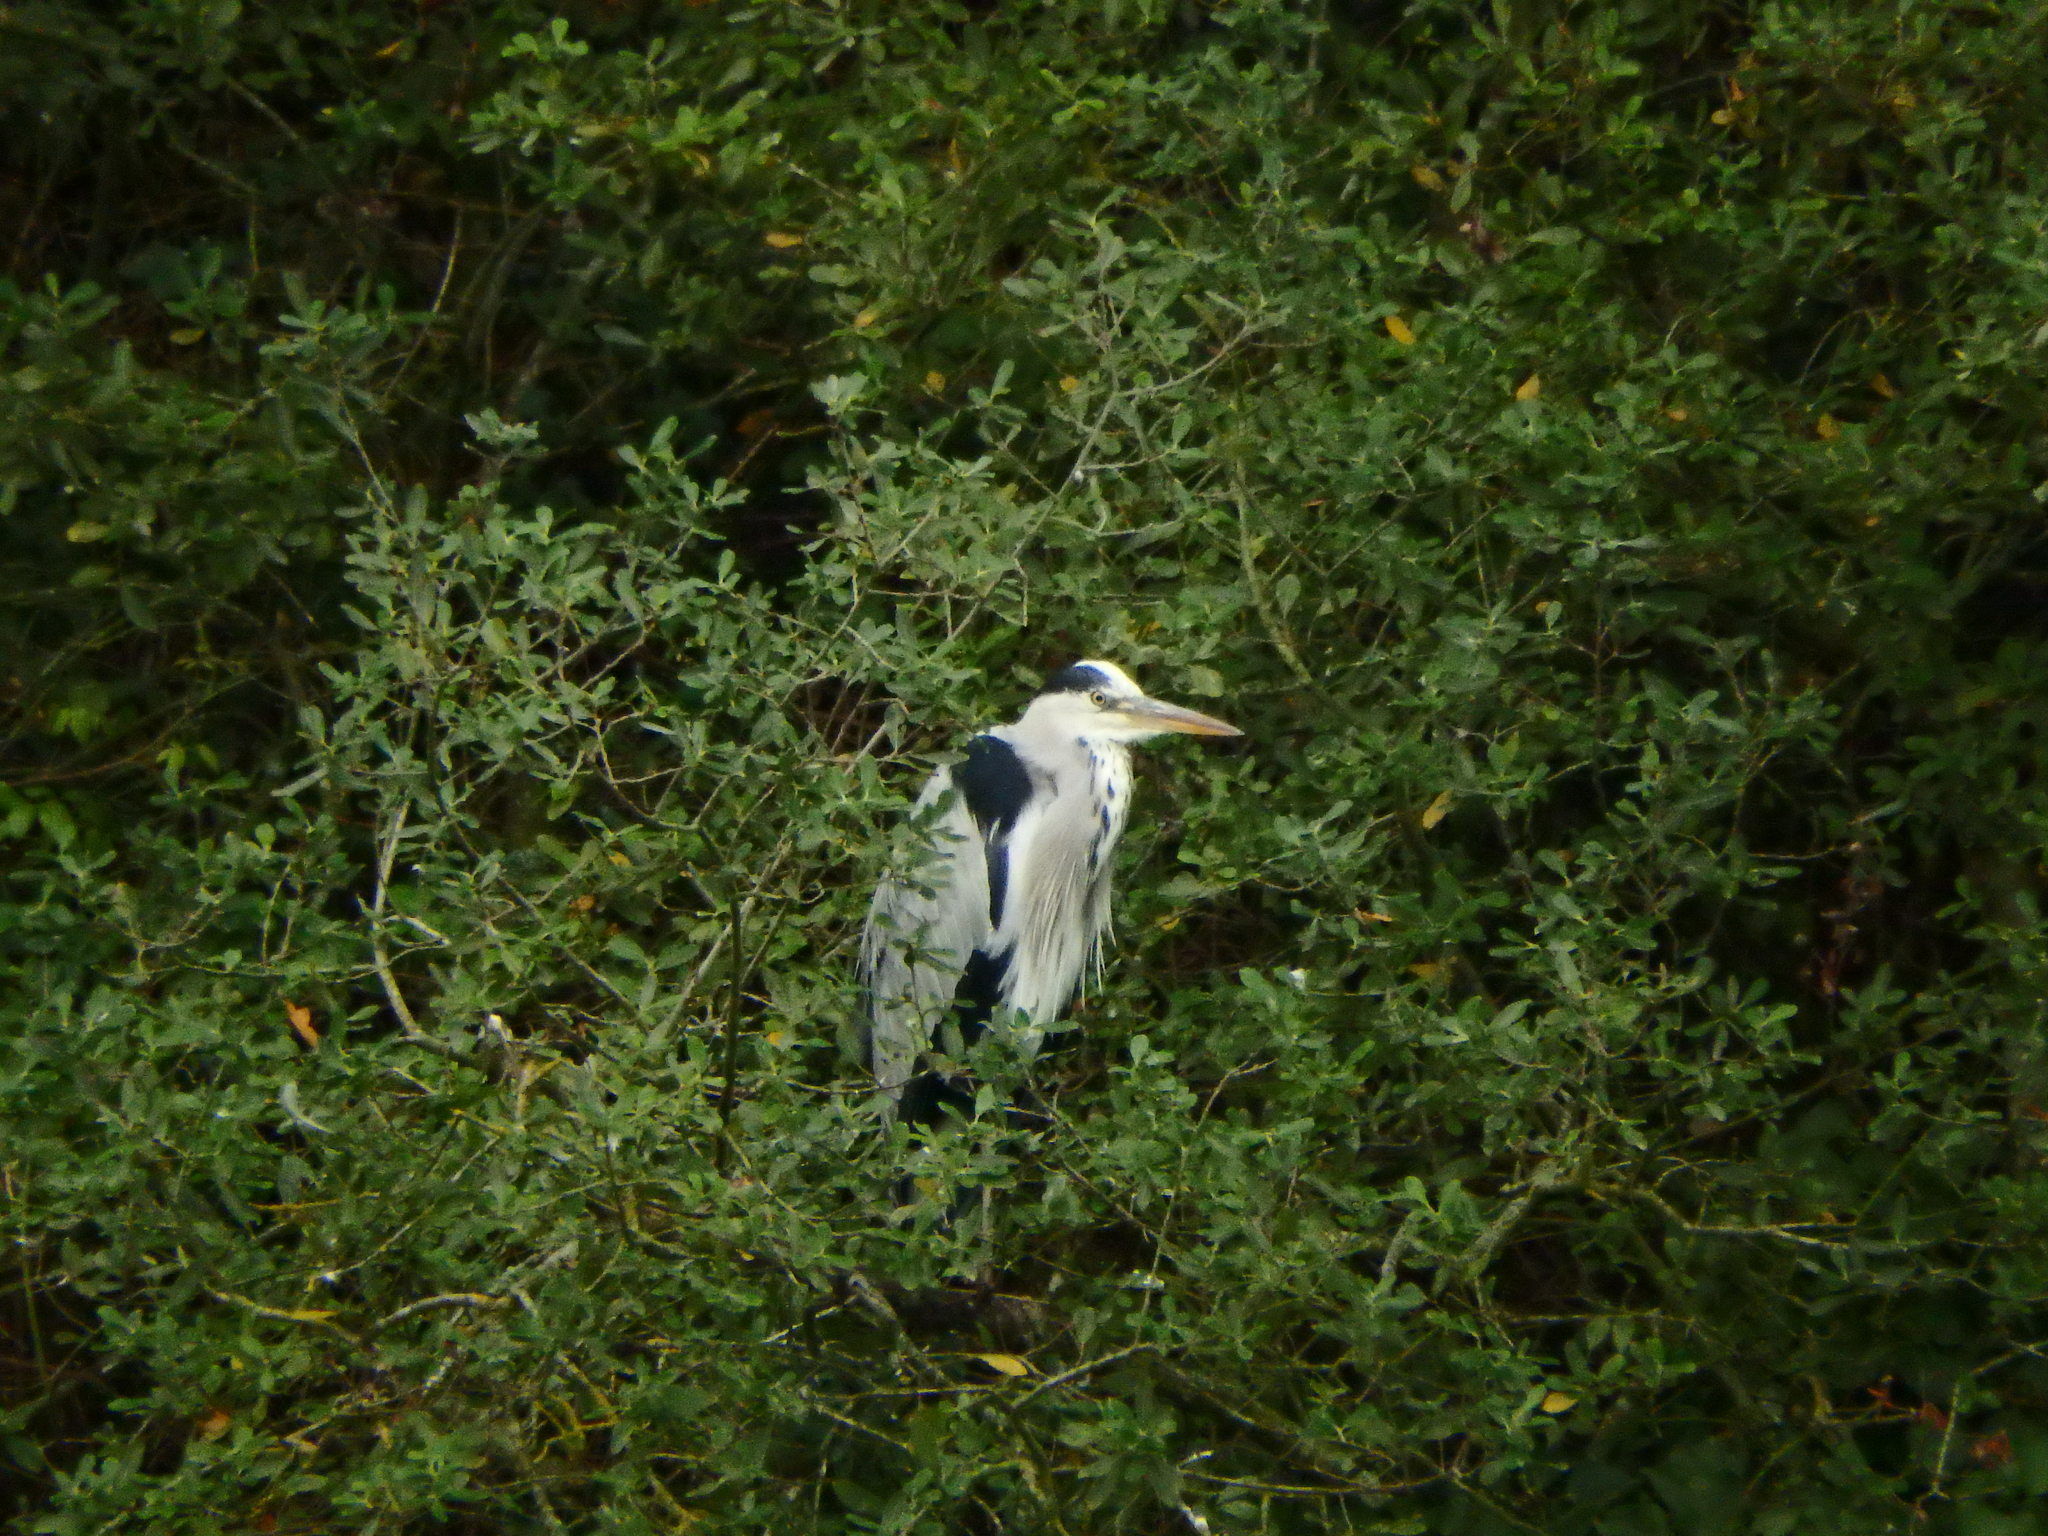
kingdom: Animalia
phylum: Chordata
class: Aves
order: Pelecaniformes
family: Ardeidae
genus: Ardea
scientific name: Ardea cinerea
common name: Grey heron
